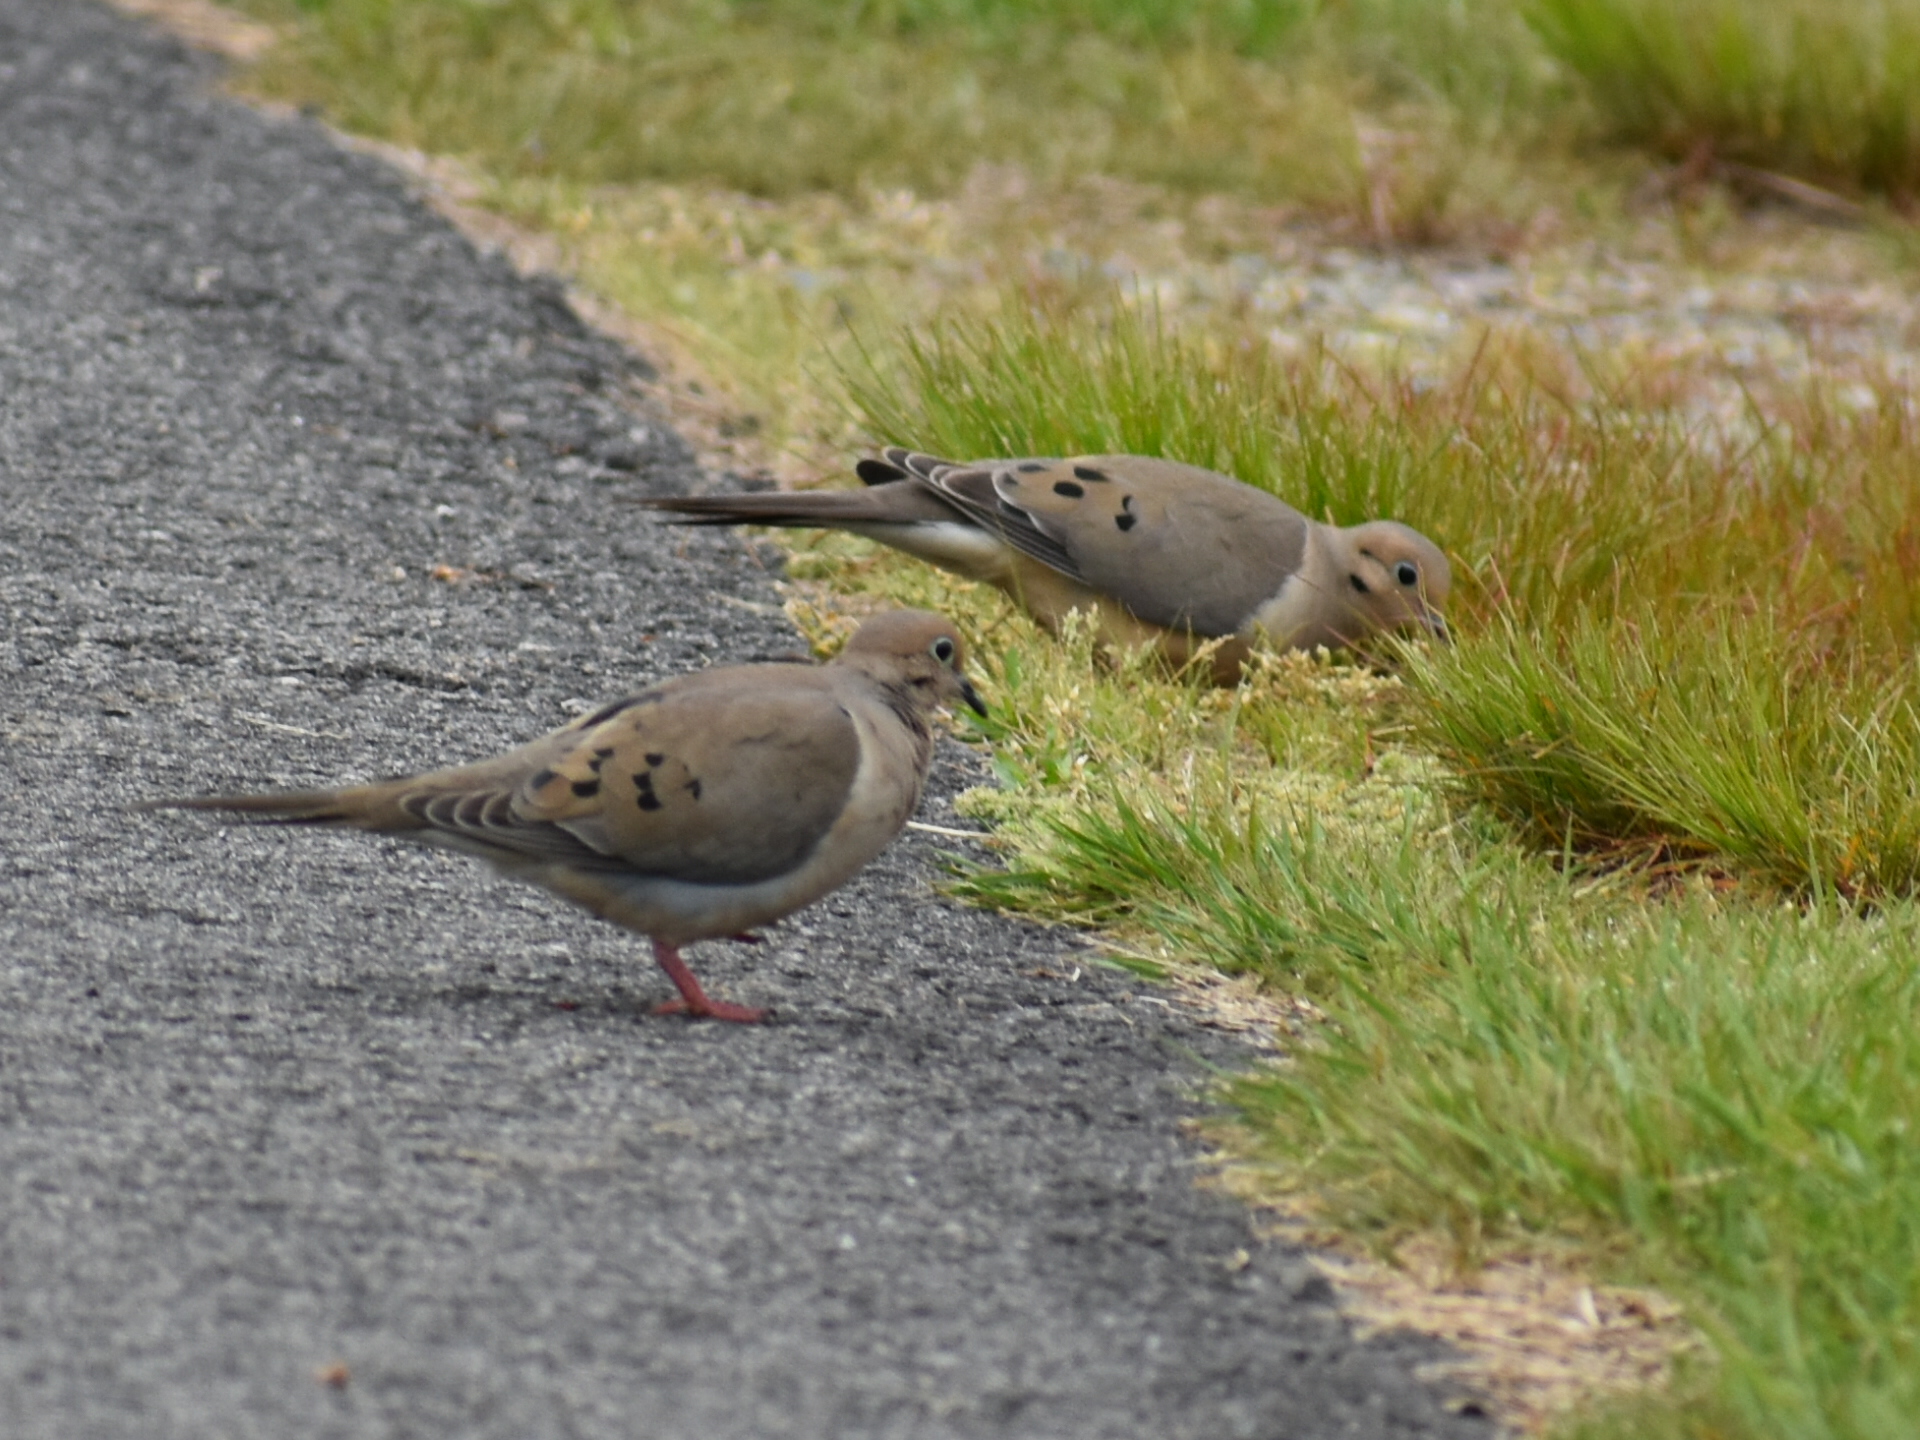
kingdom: Animalia
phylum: Chordata
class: Aves
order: Columbiformes
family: Columbidae
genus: Zenaida
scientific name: Zenaida macroura
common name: Mourning dove
